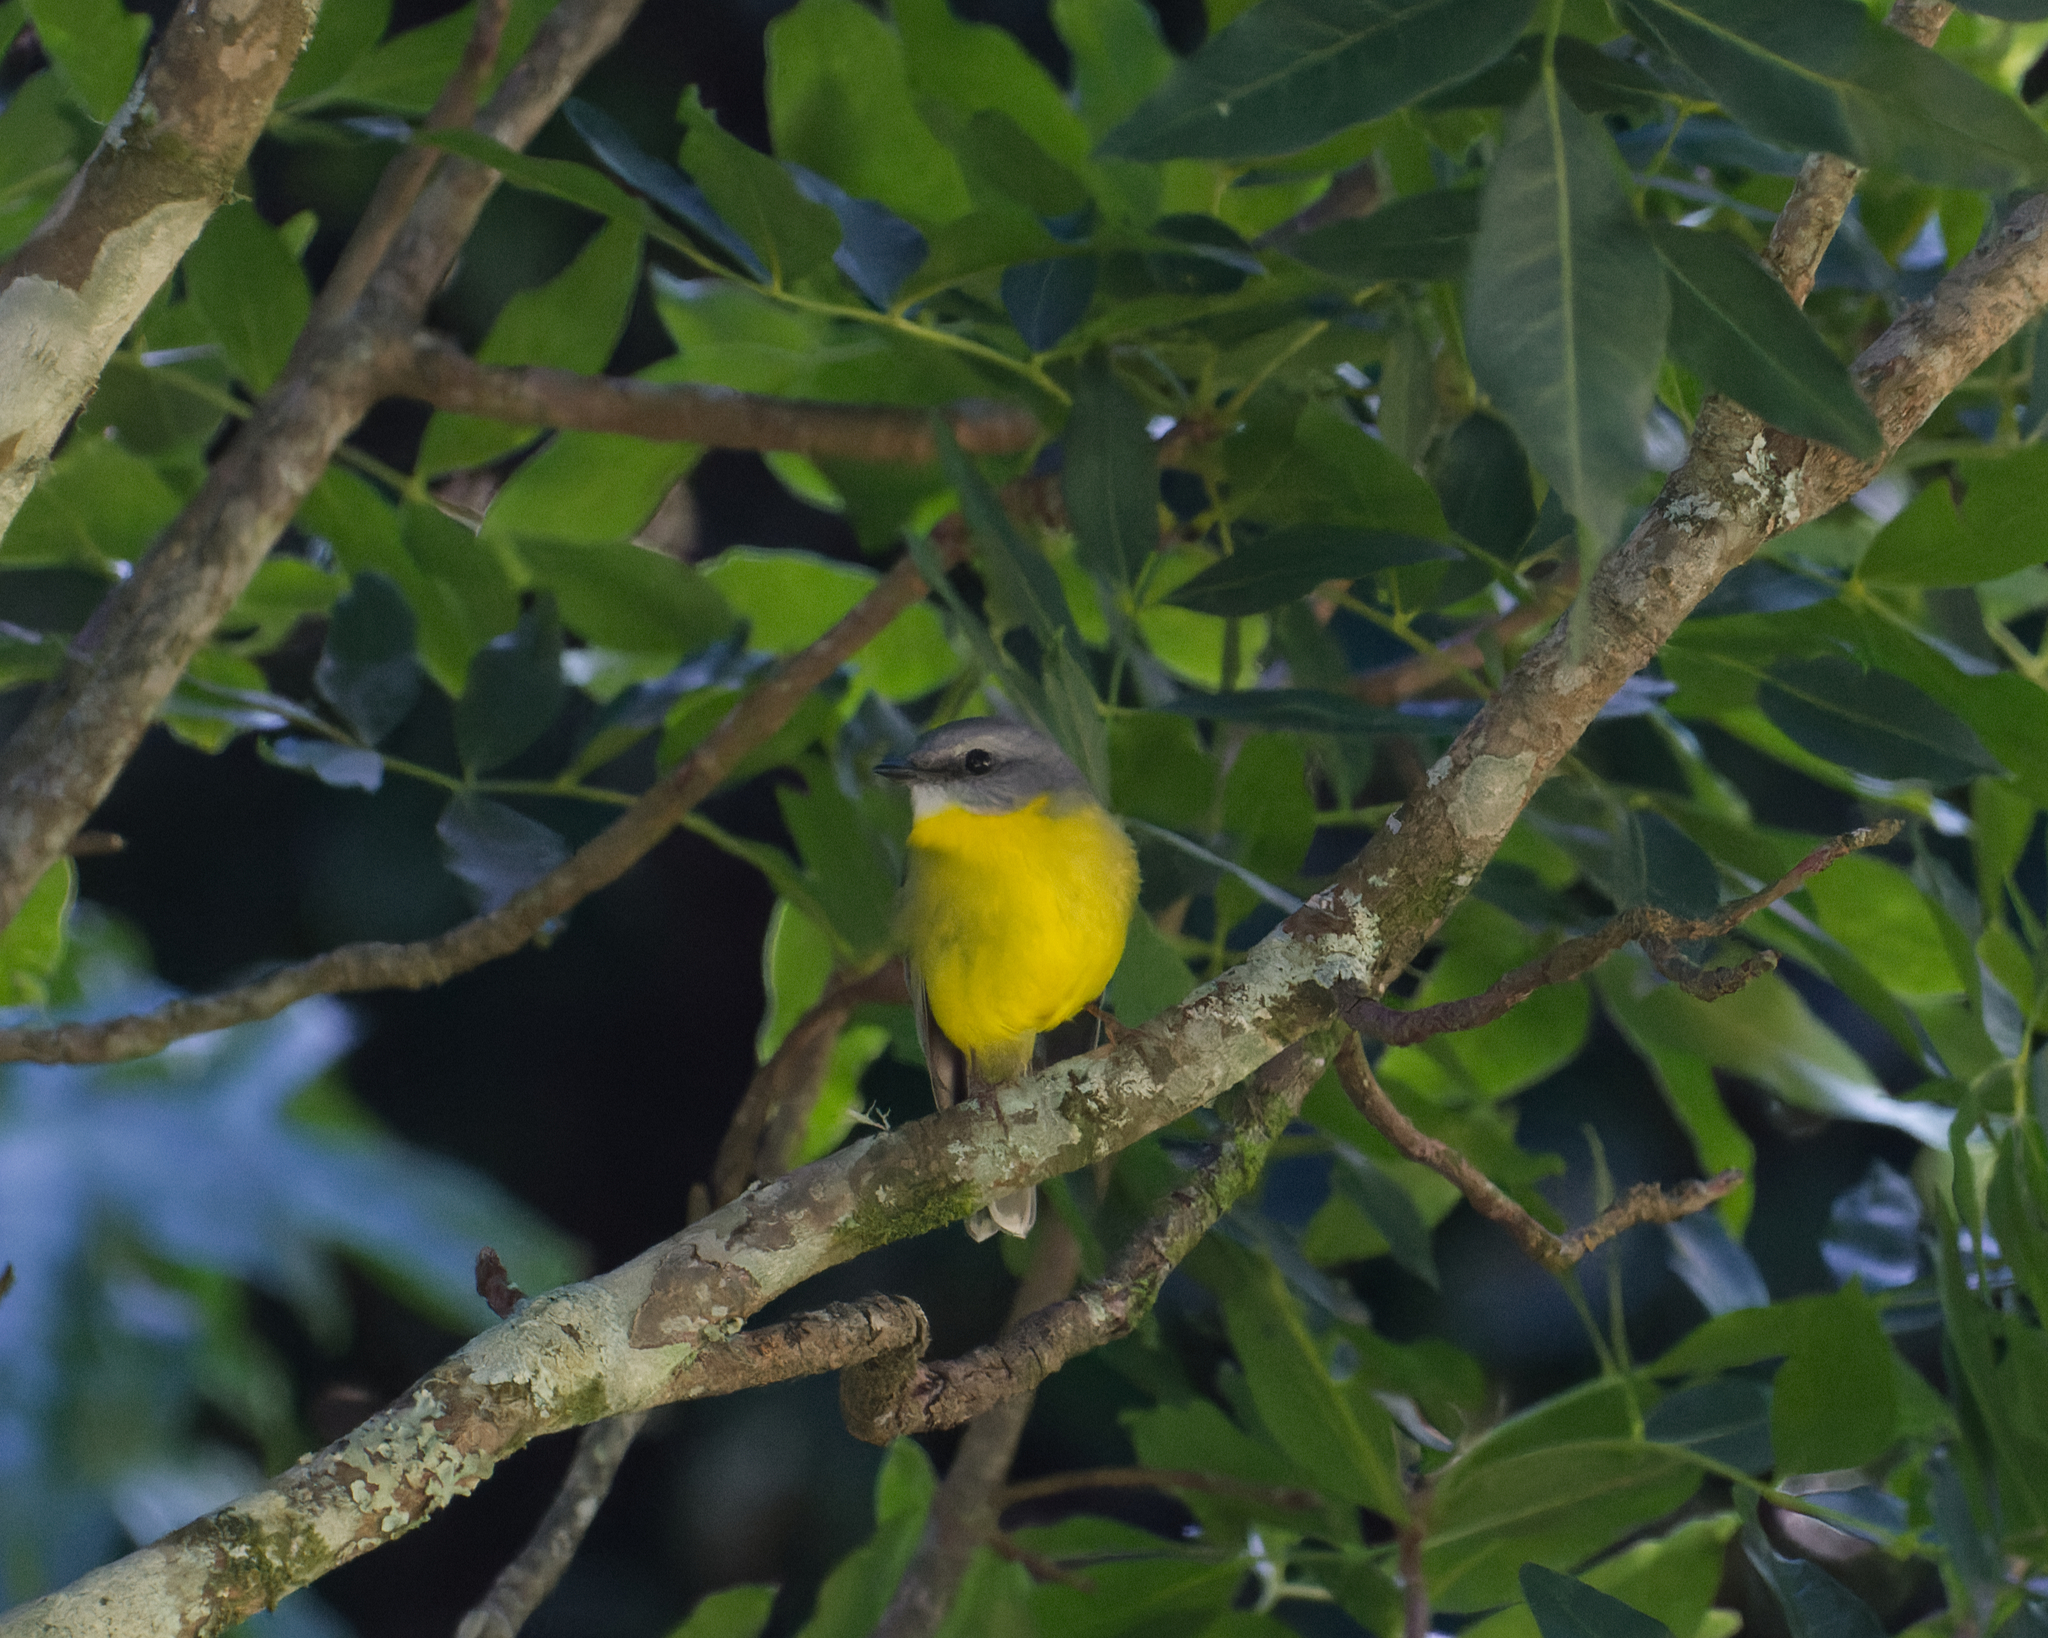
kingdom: Animalia
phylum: Chordata
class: Aves
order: Passeriformes
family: Petroicidae
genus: Eopsaltria
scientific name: Eopsaltria australis
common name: Eastern yellow robin
